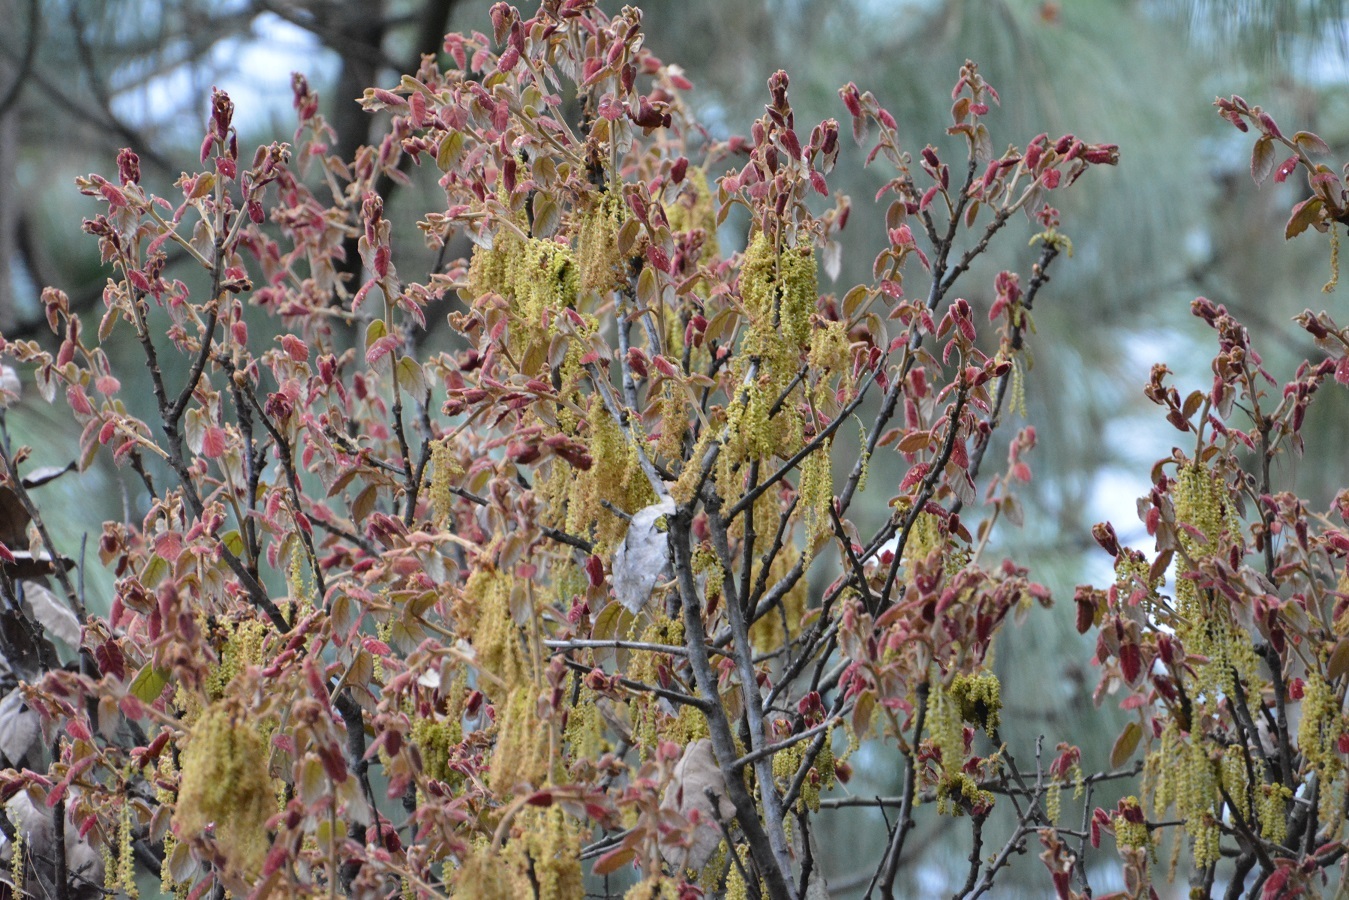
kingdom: Plantae
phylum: Tracheophyta
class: Magnoliopsida
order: Fagales
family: Fagaceae
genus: Quercus
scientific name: Quercus crassifolia
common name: Leather leaf mexican oak
